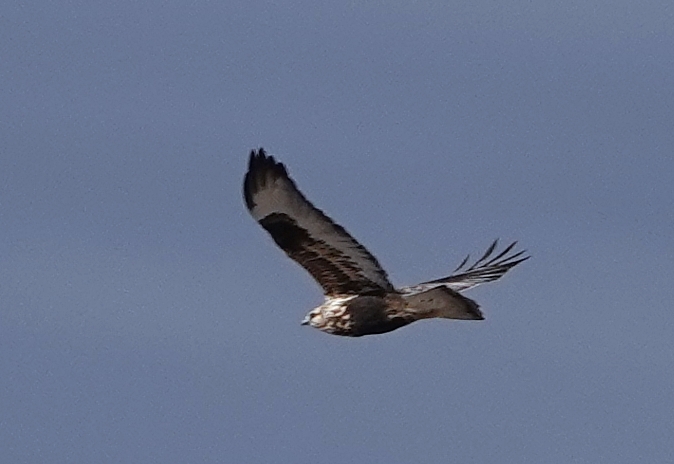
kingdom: Animalia
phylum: Chordata
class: Aves
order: Accipitriformes
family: Accipitridae
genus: Buteo
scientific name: Buteo lagopus
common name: Rough-legged buzzard
